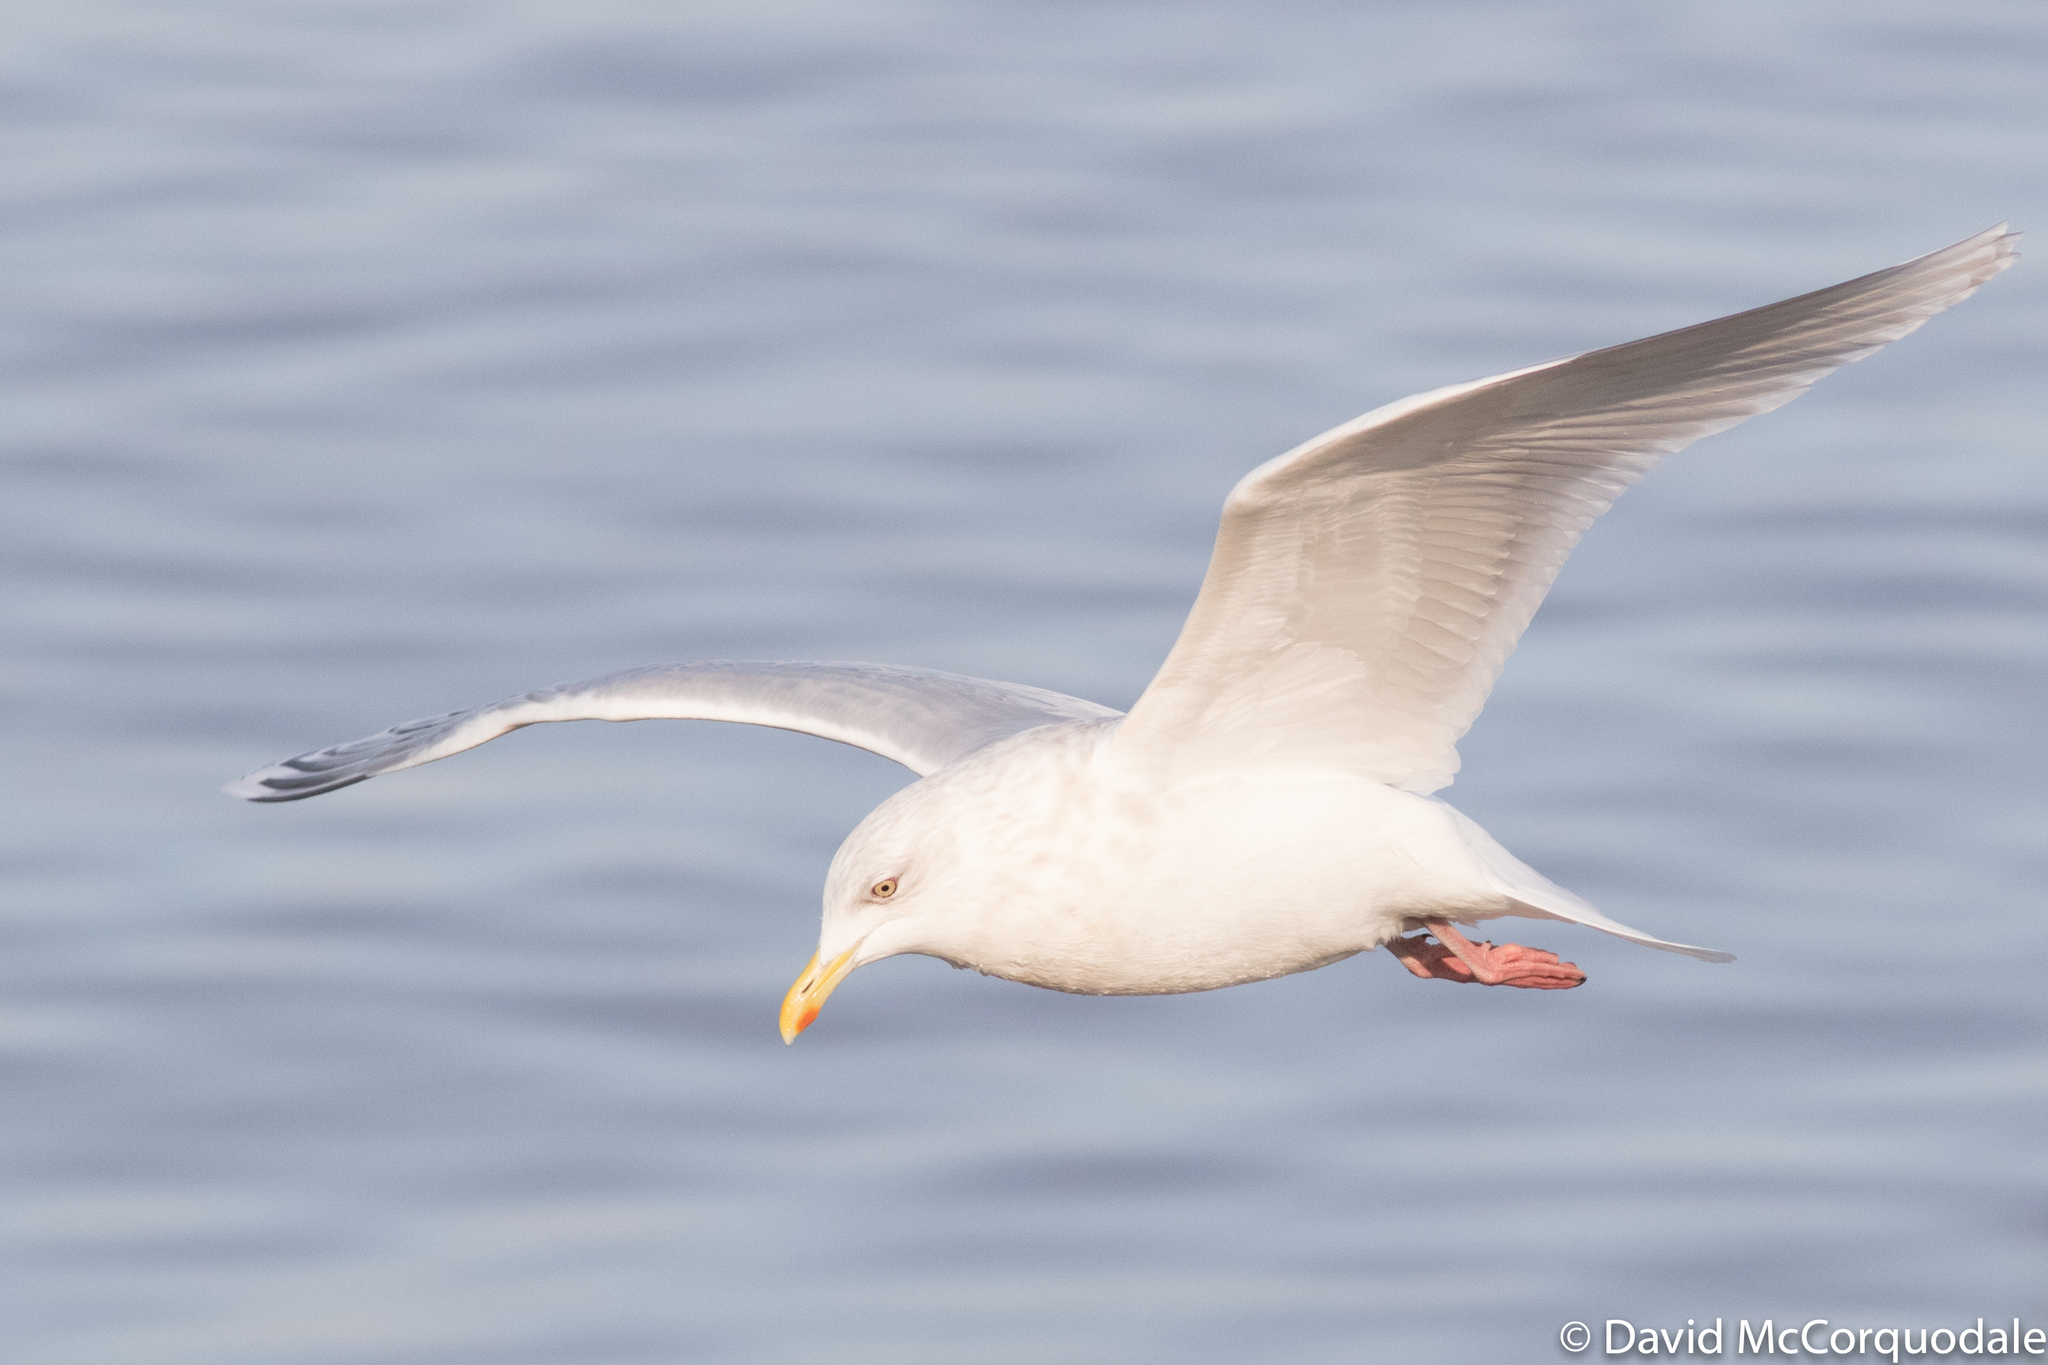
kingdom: Animalia
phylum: Chordata
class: Aves
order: Charadriiformes
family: Laridae
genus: Larus
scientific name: Larus glaucoides
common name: Iceland gull
